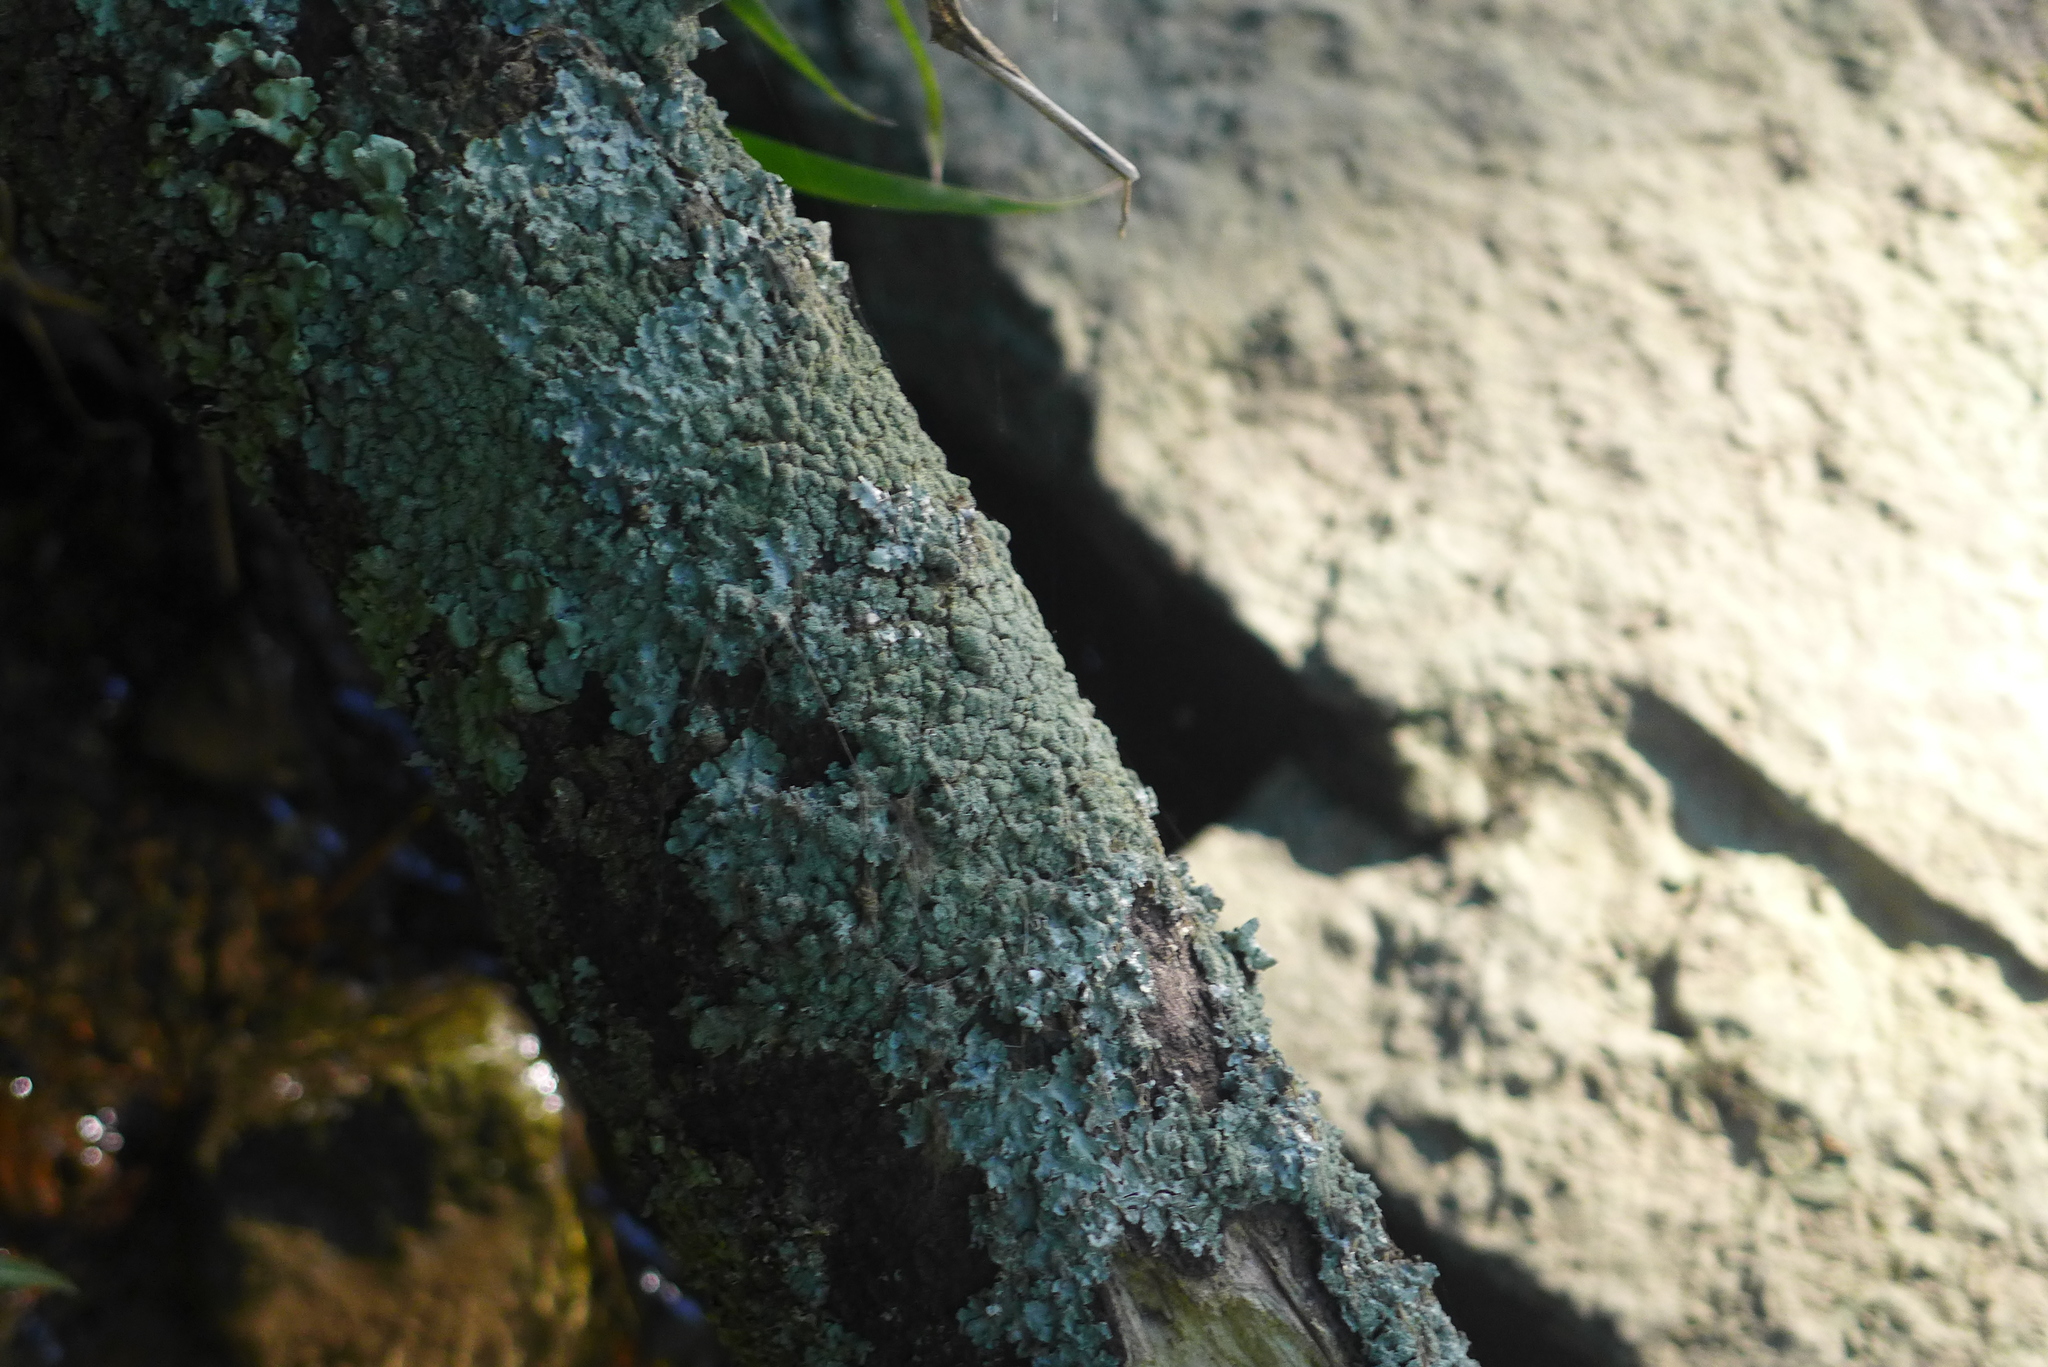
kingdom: Fungi
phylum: Ascomycota
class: Lecanoromycetes
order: Lecanorales
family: Parmeliaceae
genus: Punctelia
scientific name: Punctelia caseana
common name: Moondust speckled lichen
